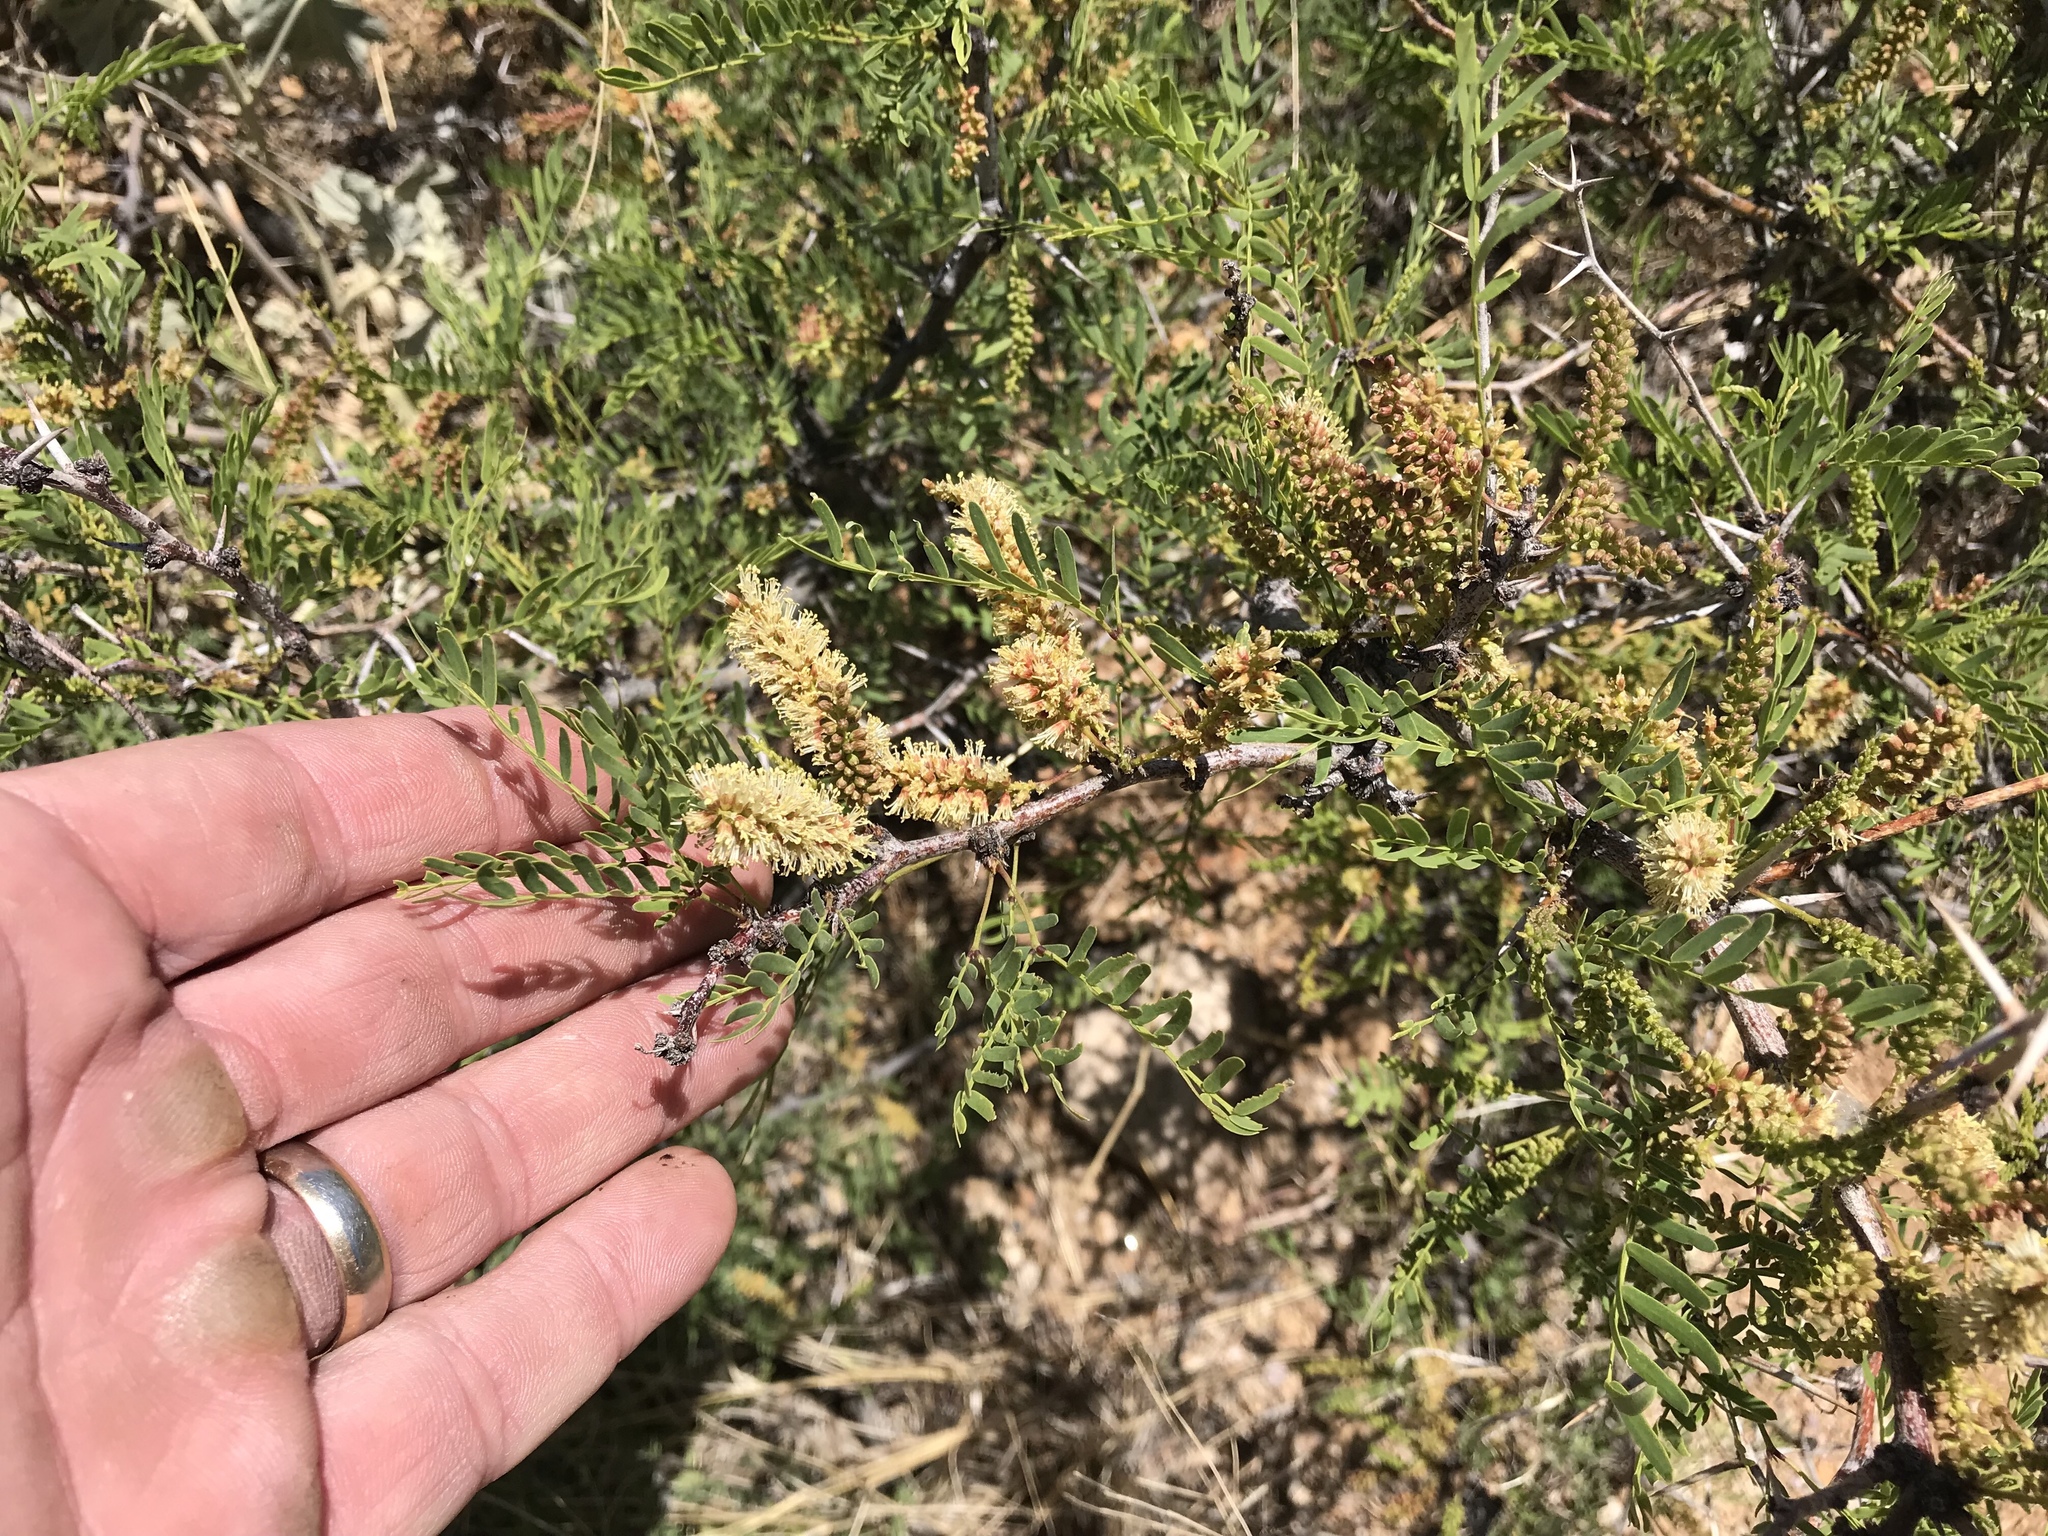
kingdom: Plantae
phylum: Tracheophyta
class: Magnoliopsida
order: Fabales
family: Fabaceae
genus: Prosopis
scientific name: Prosopis glandulosa
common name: Honey mesquite
